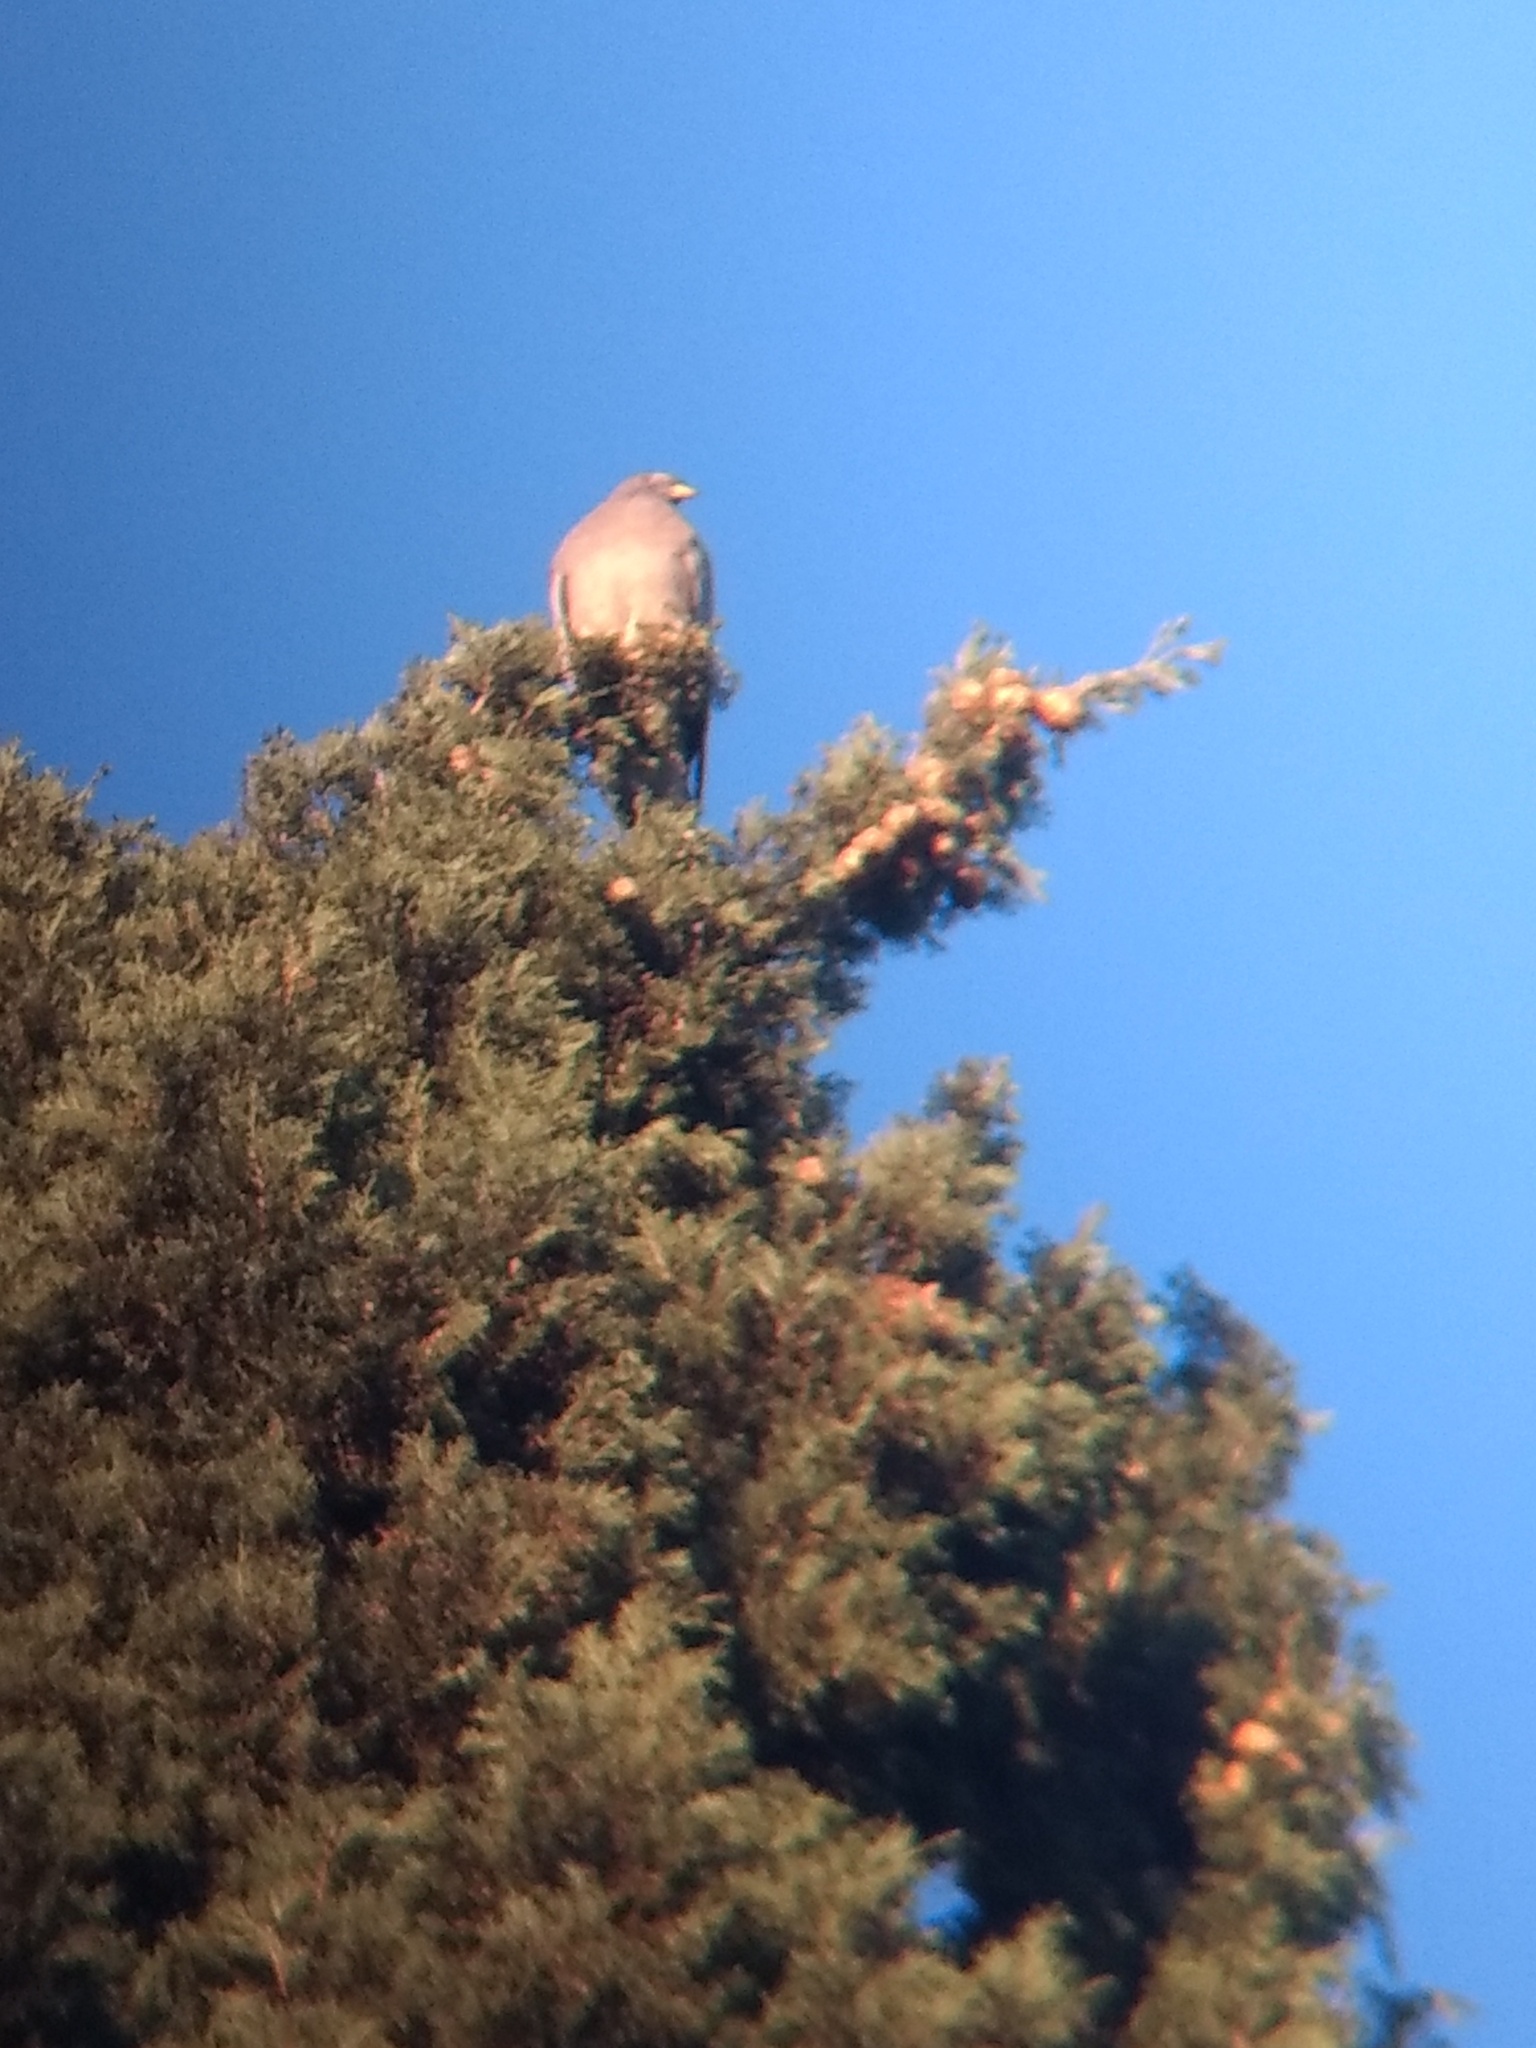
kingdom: Animalia
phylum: Chordata
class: Aves
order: Columbiformes
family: Columbidae
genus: Patagioenas
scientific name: Patagioenas fasciata
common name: Band-tailed pigeon
